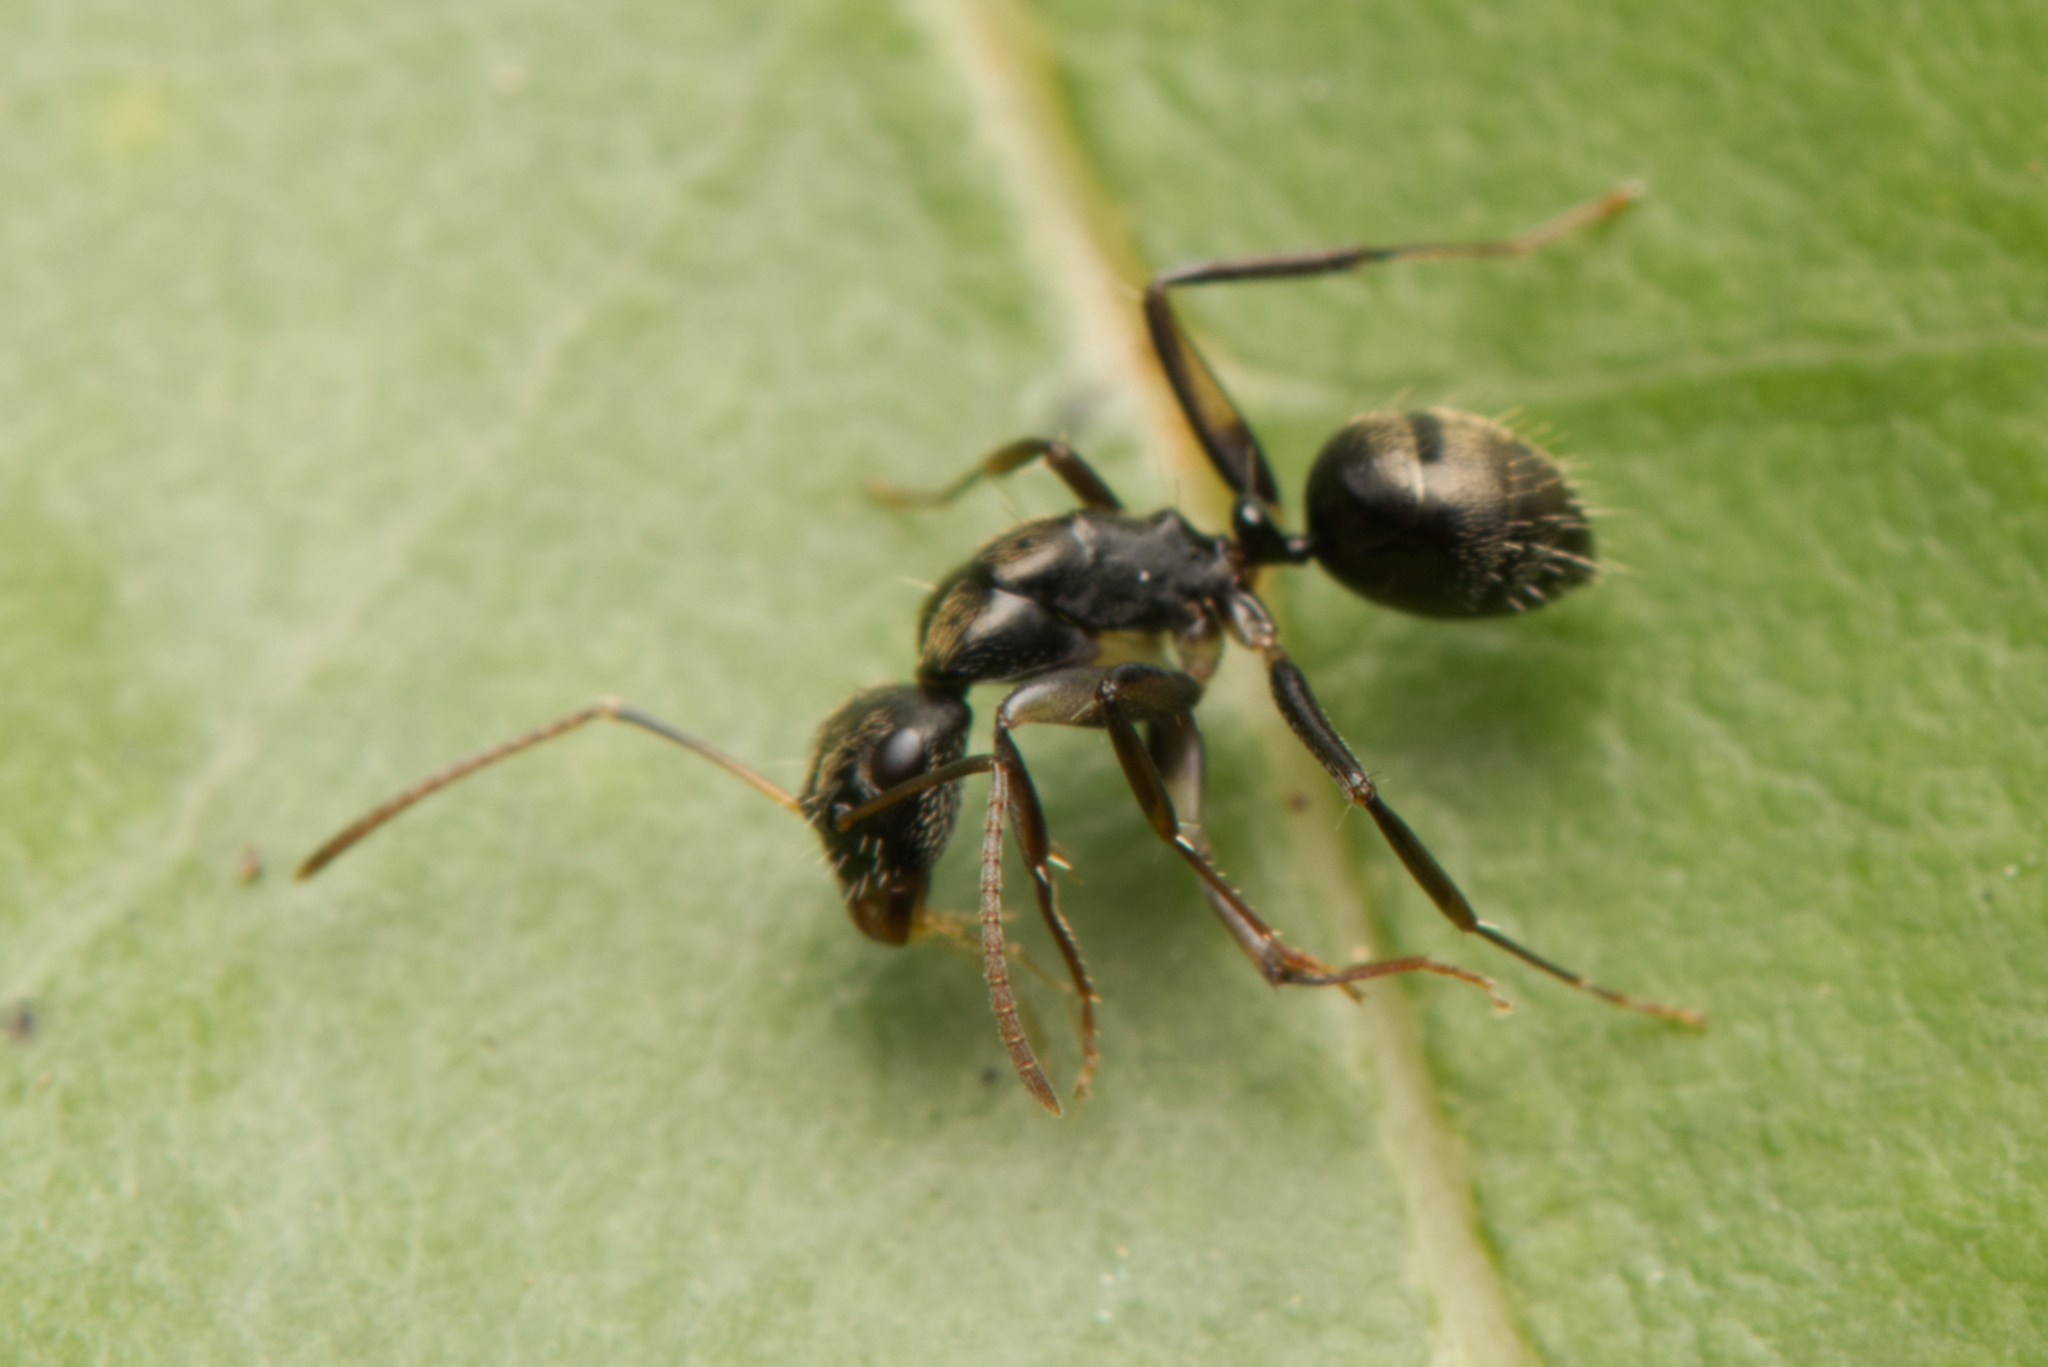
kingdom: Animalia
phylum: Arthropoda
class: Insecta
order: Hymenoptera
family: Formicidae
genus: Camponotus
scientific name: Camponotus froggatti
